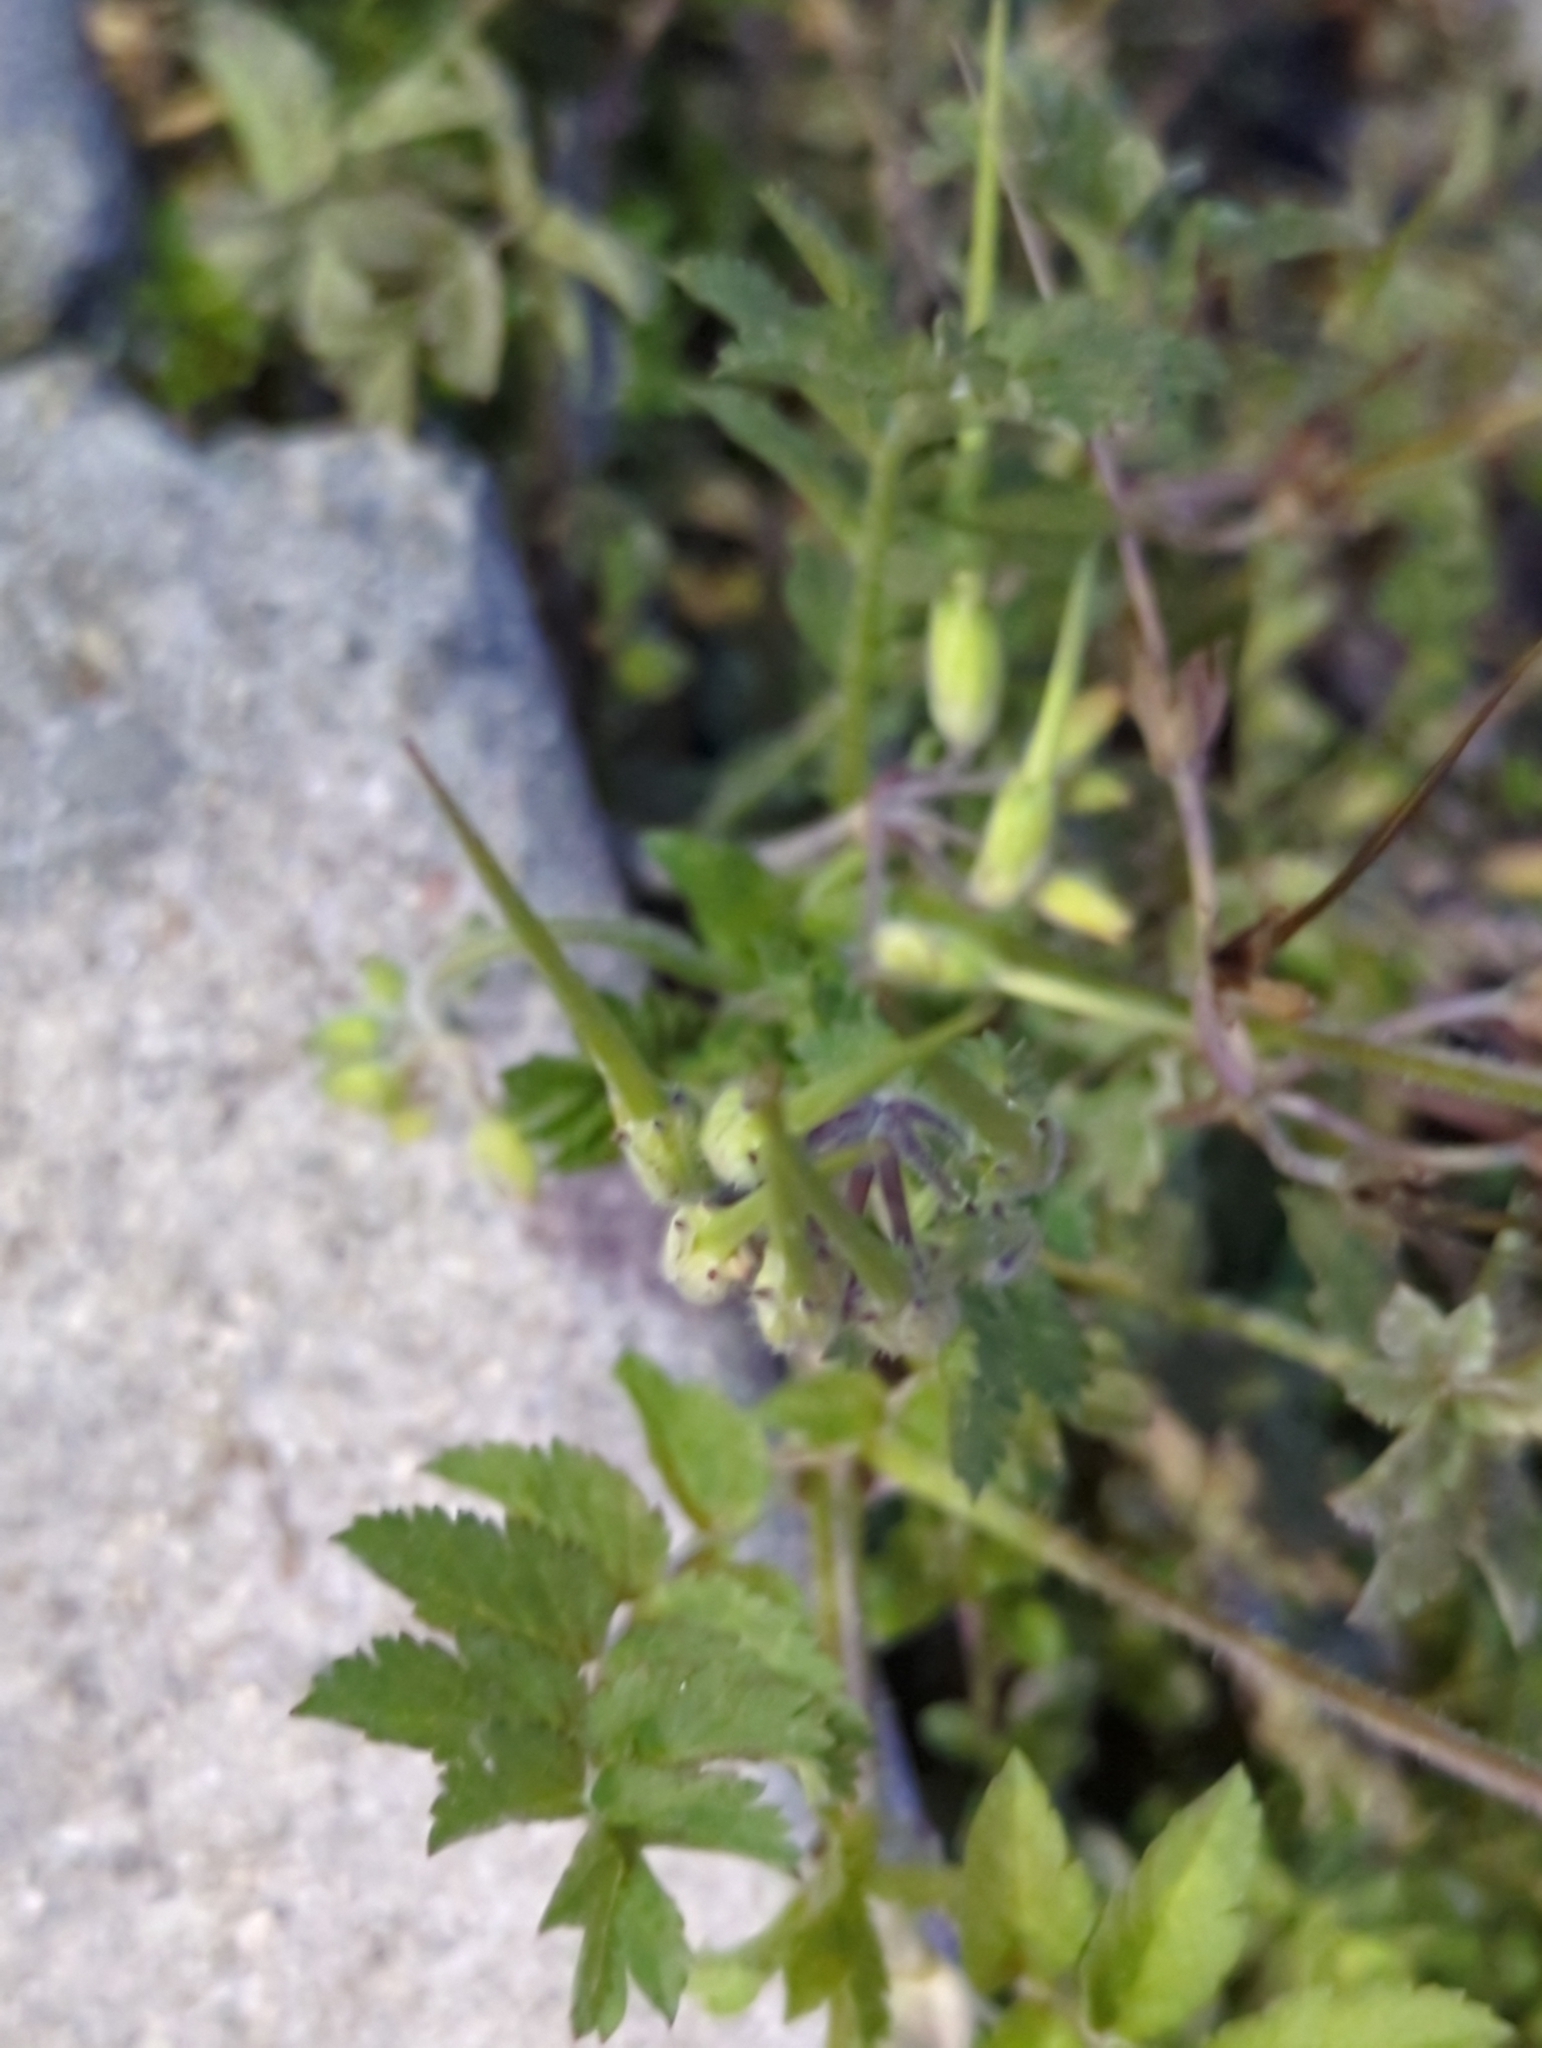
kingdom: Plantae
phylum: Tracheophyta
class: Magnoliopsida
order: Geraniales
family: Geraniaceae
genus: Erodium
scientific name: Erodium moschatum
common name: Musk stork's-bill
